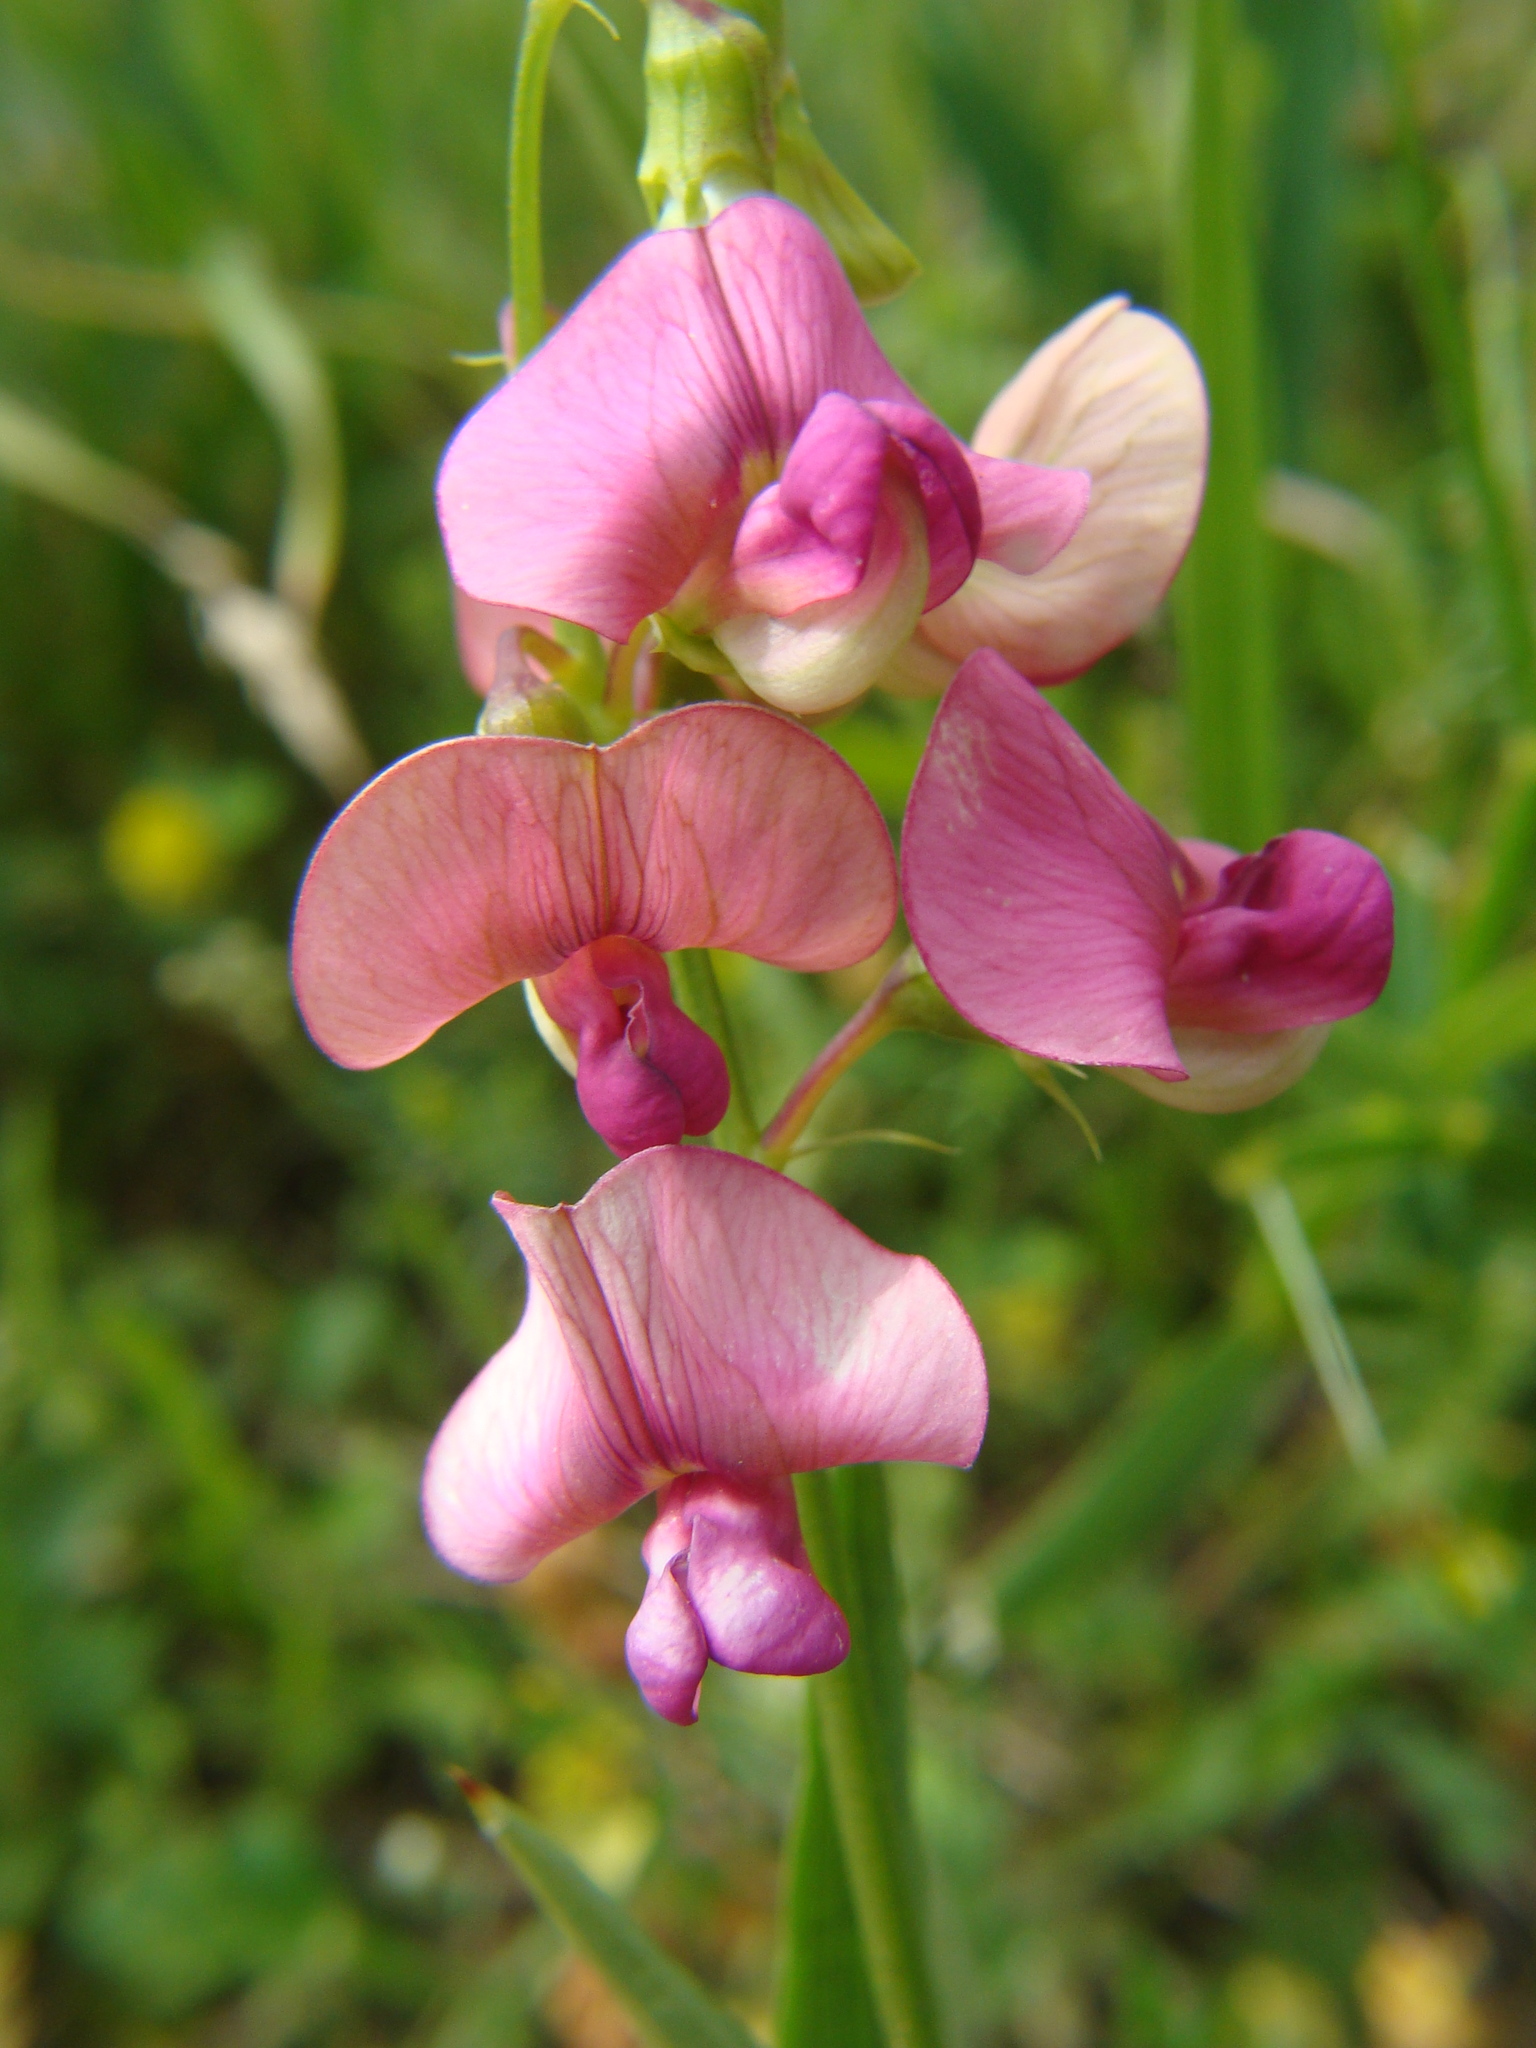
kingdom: Plantae
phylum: Tracheophyta
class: Magnoliopsida
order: Fabales
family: Fabaceae
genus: Lathyrus
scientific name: Lathyrus sylvestris
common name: Flat pea
